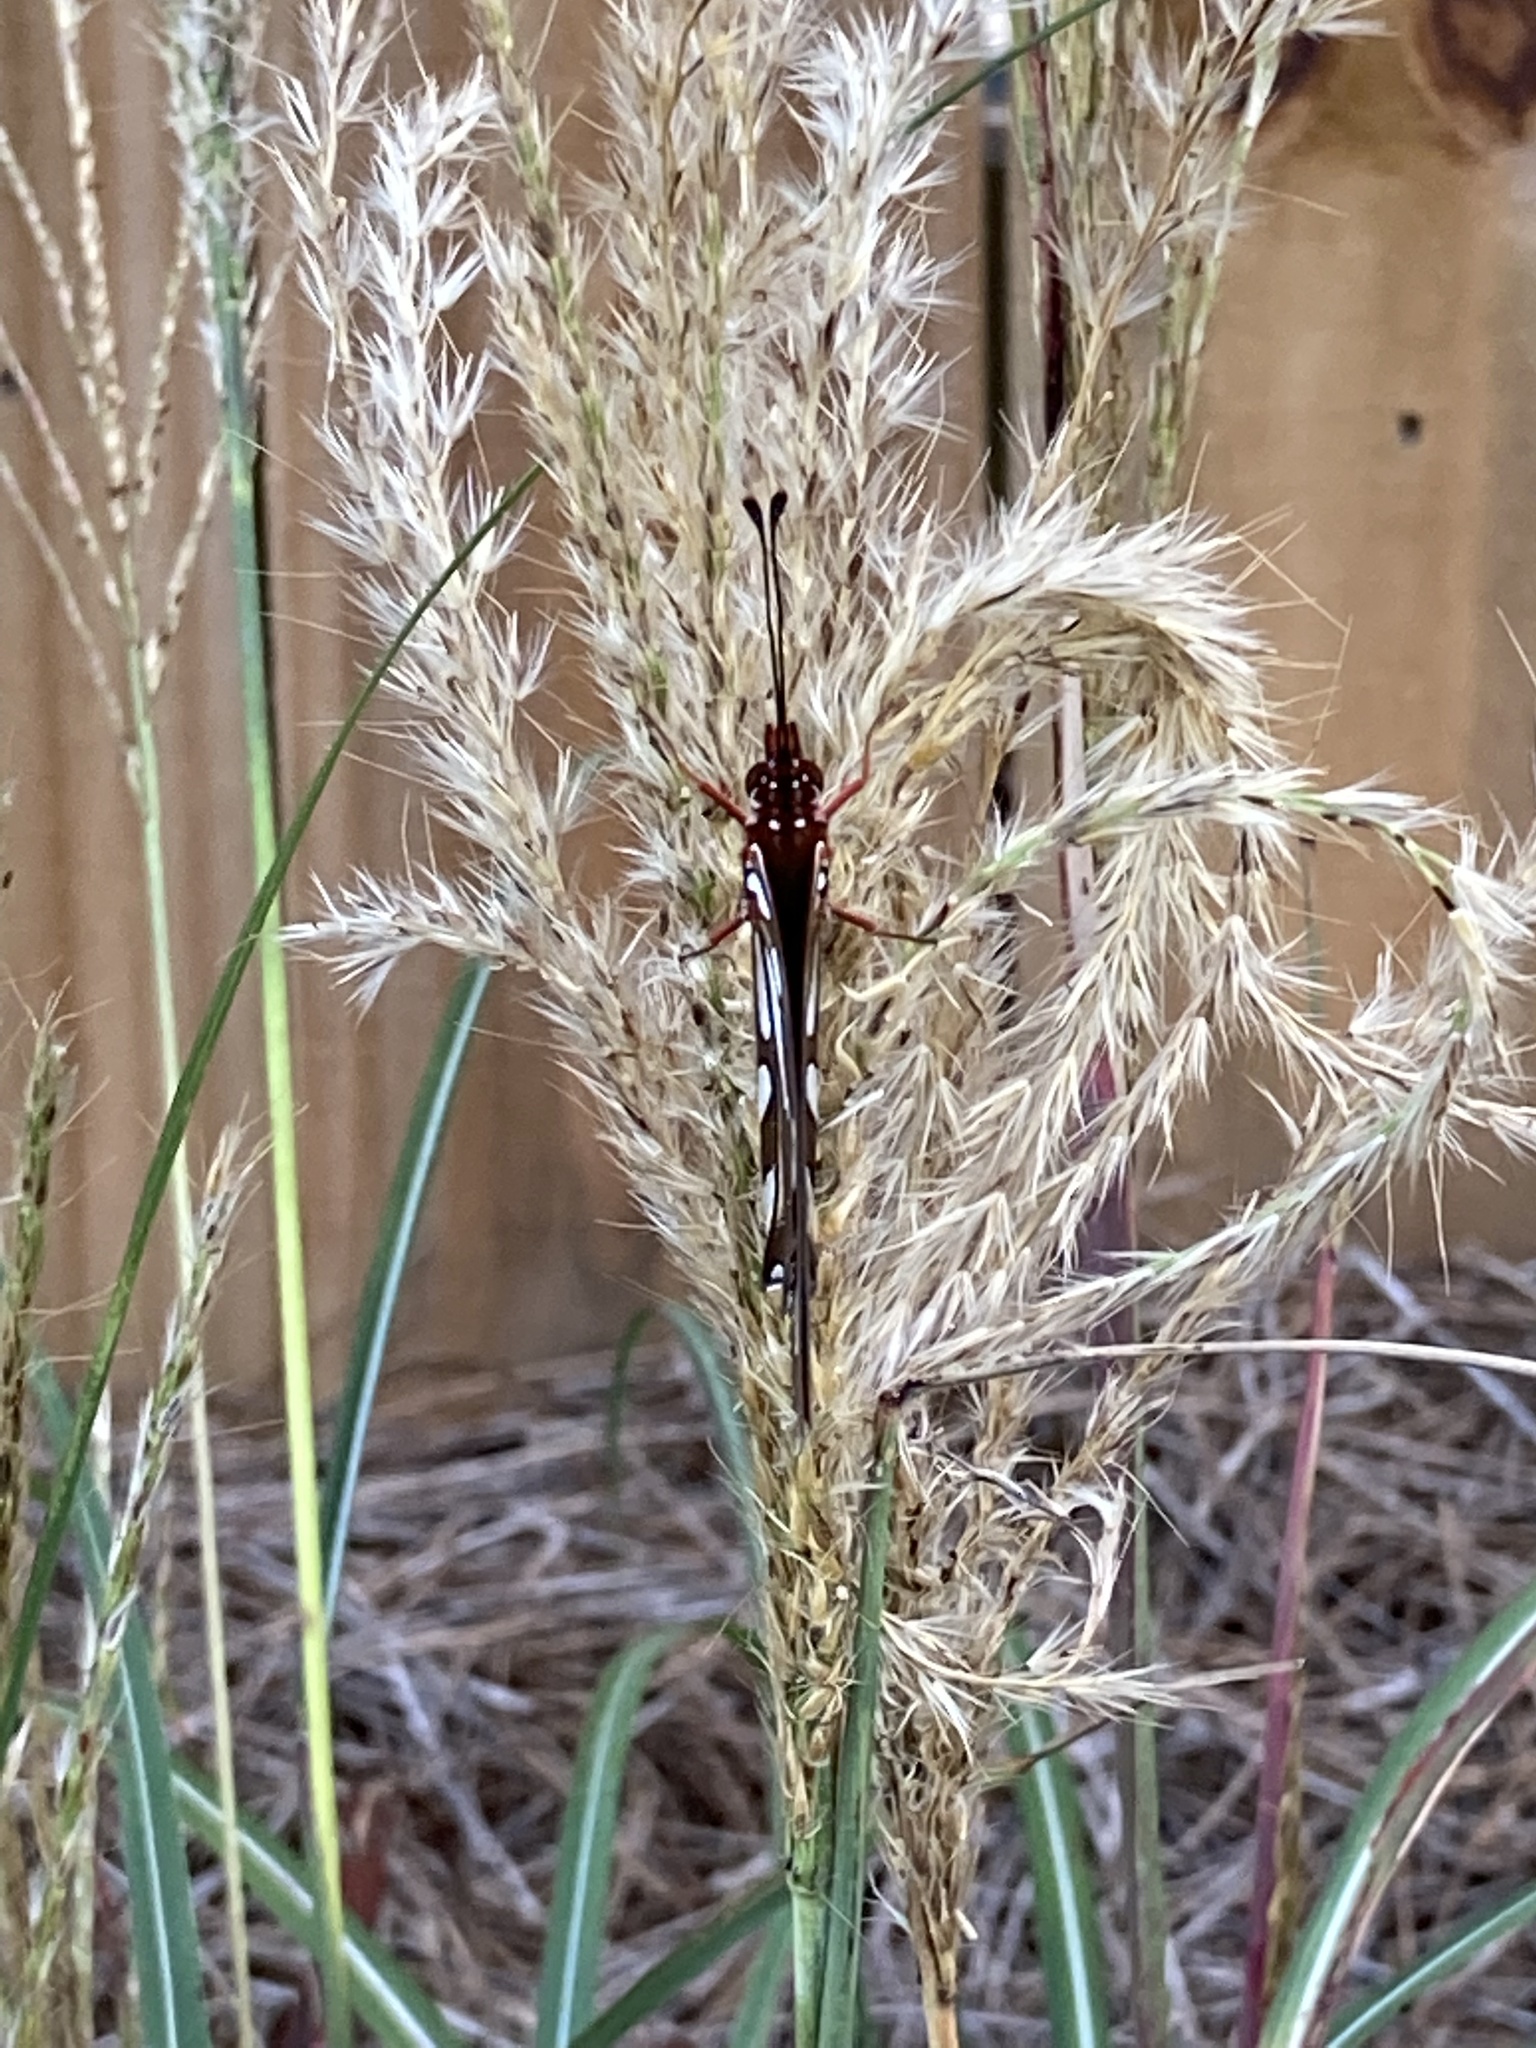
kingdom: Animalia
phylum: Arthropoda
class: Insecta
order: Lepidoptera
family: Nymphalidae
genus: Dione
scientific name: Dione vanillae
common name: Gulf fritillary
